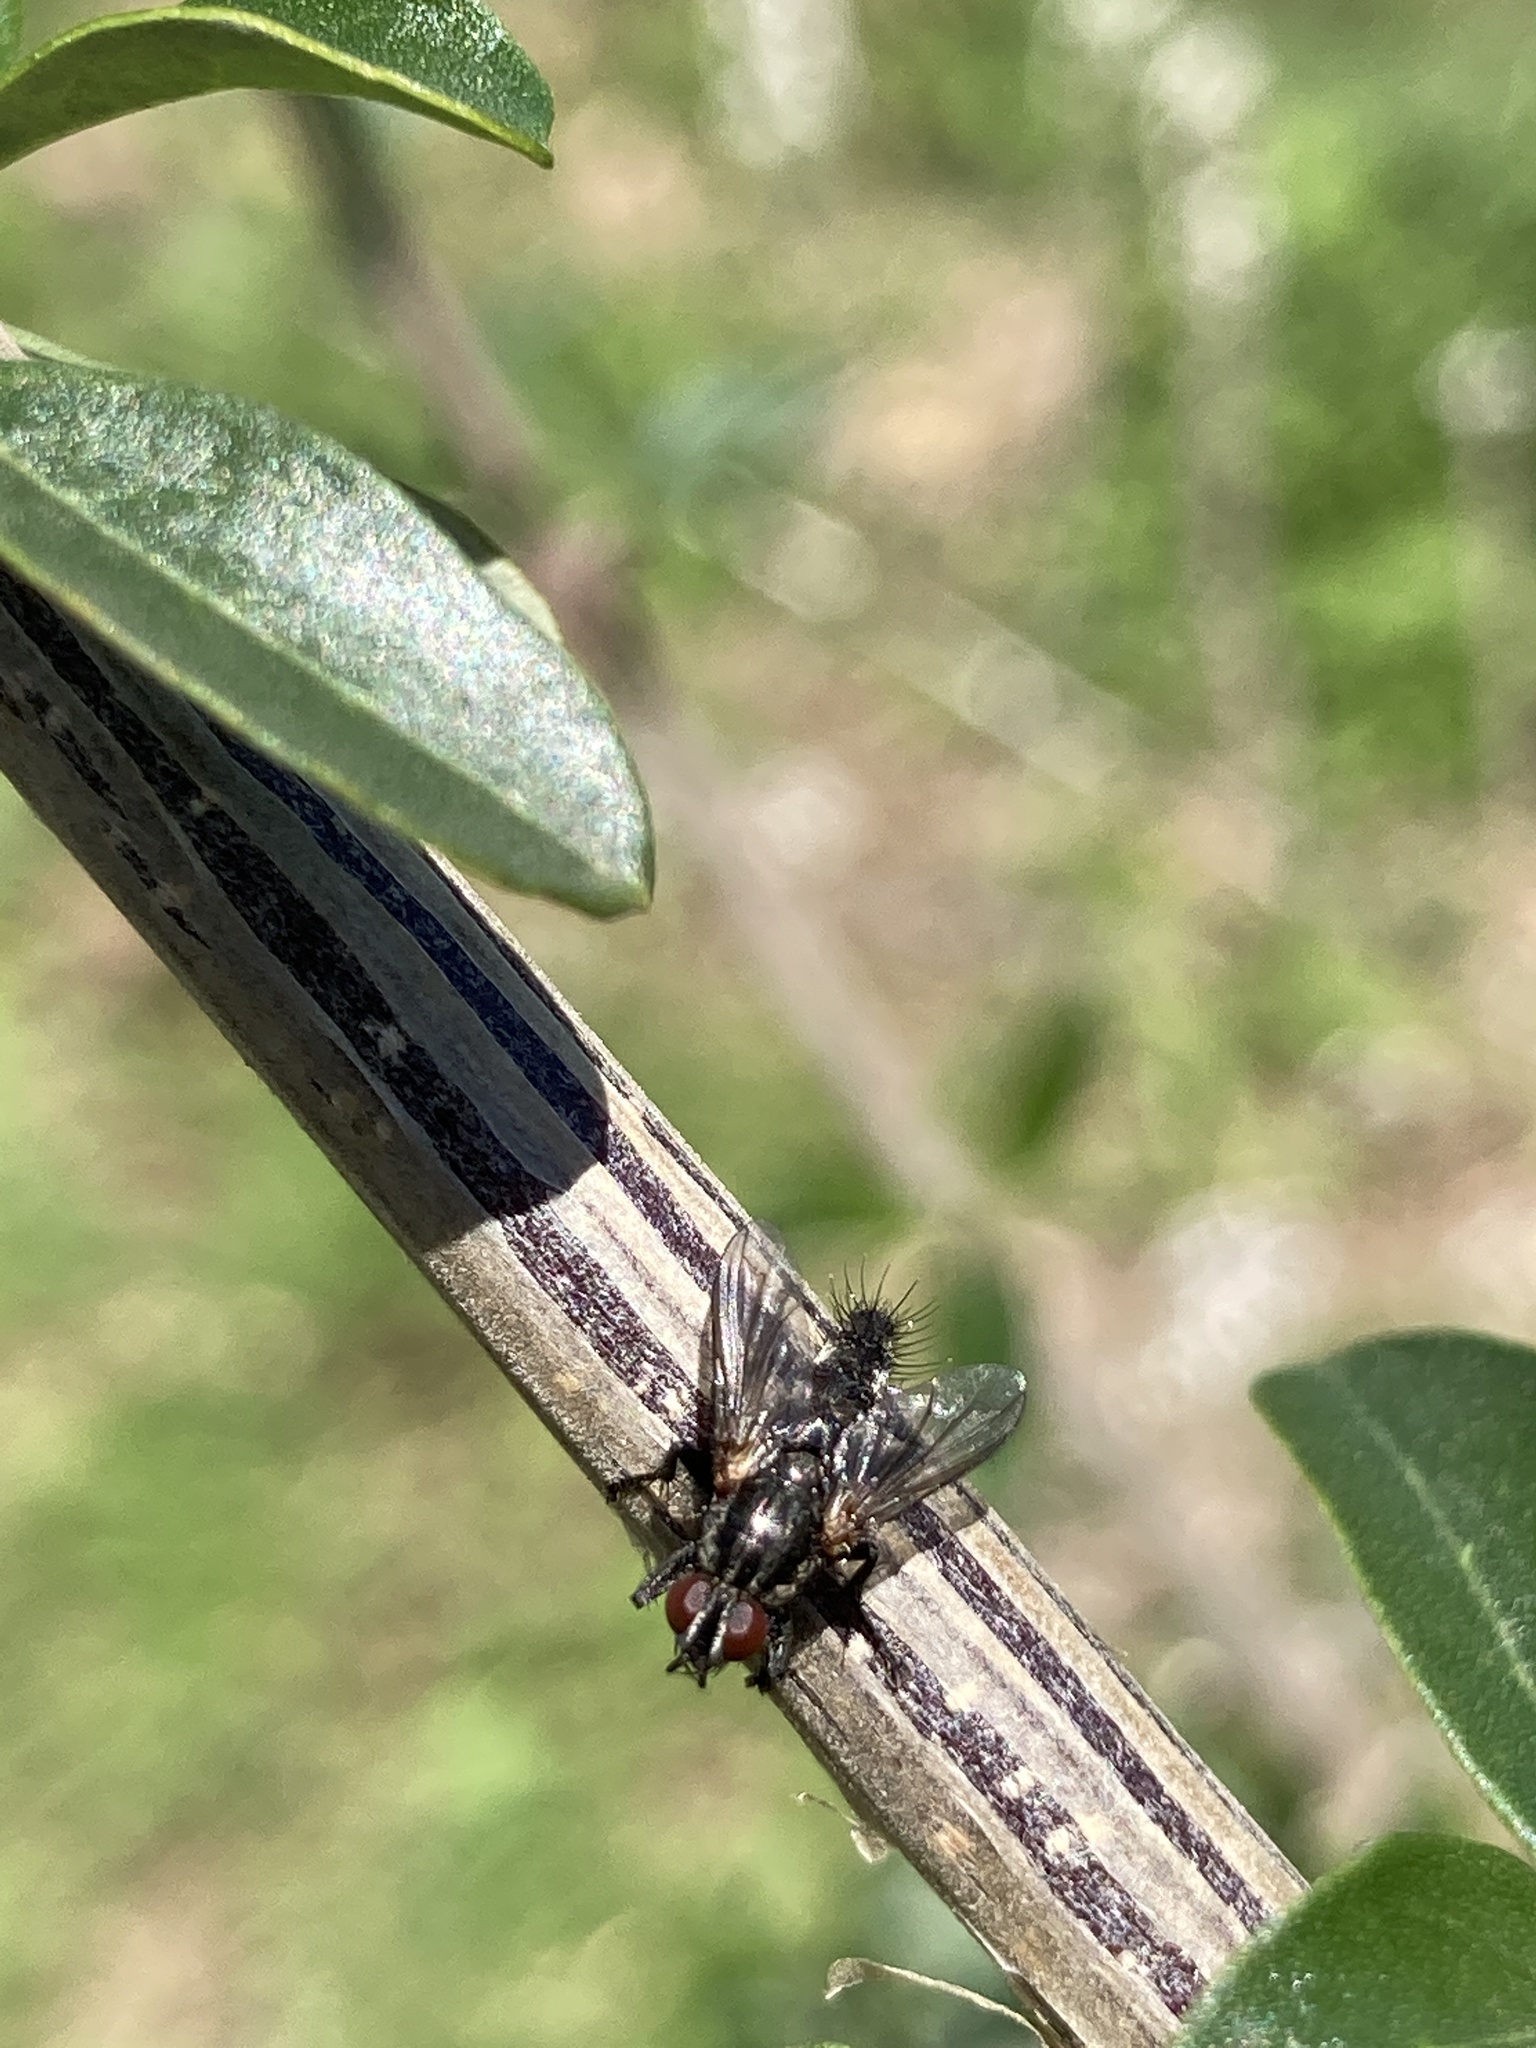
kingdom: Animalia
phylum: Arthropoda
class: Insecta
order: Diptera
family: Calliphoridae
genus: Stevenia
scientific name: Stevenia deceptoria
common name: Grizzled woodlouse-fly
